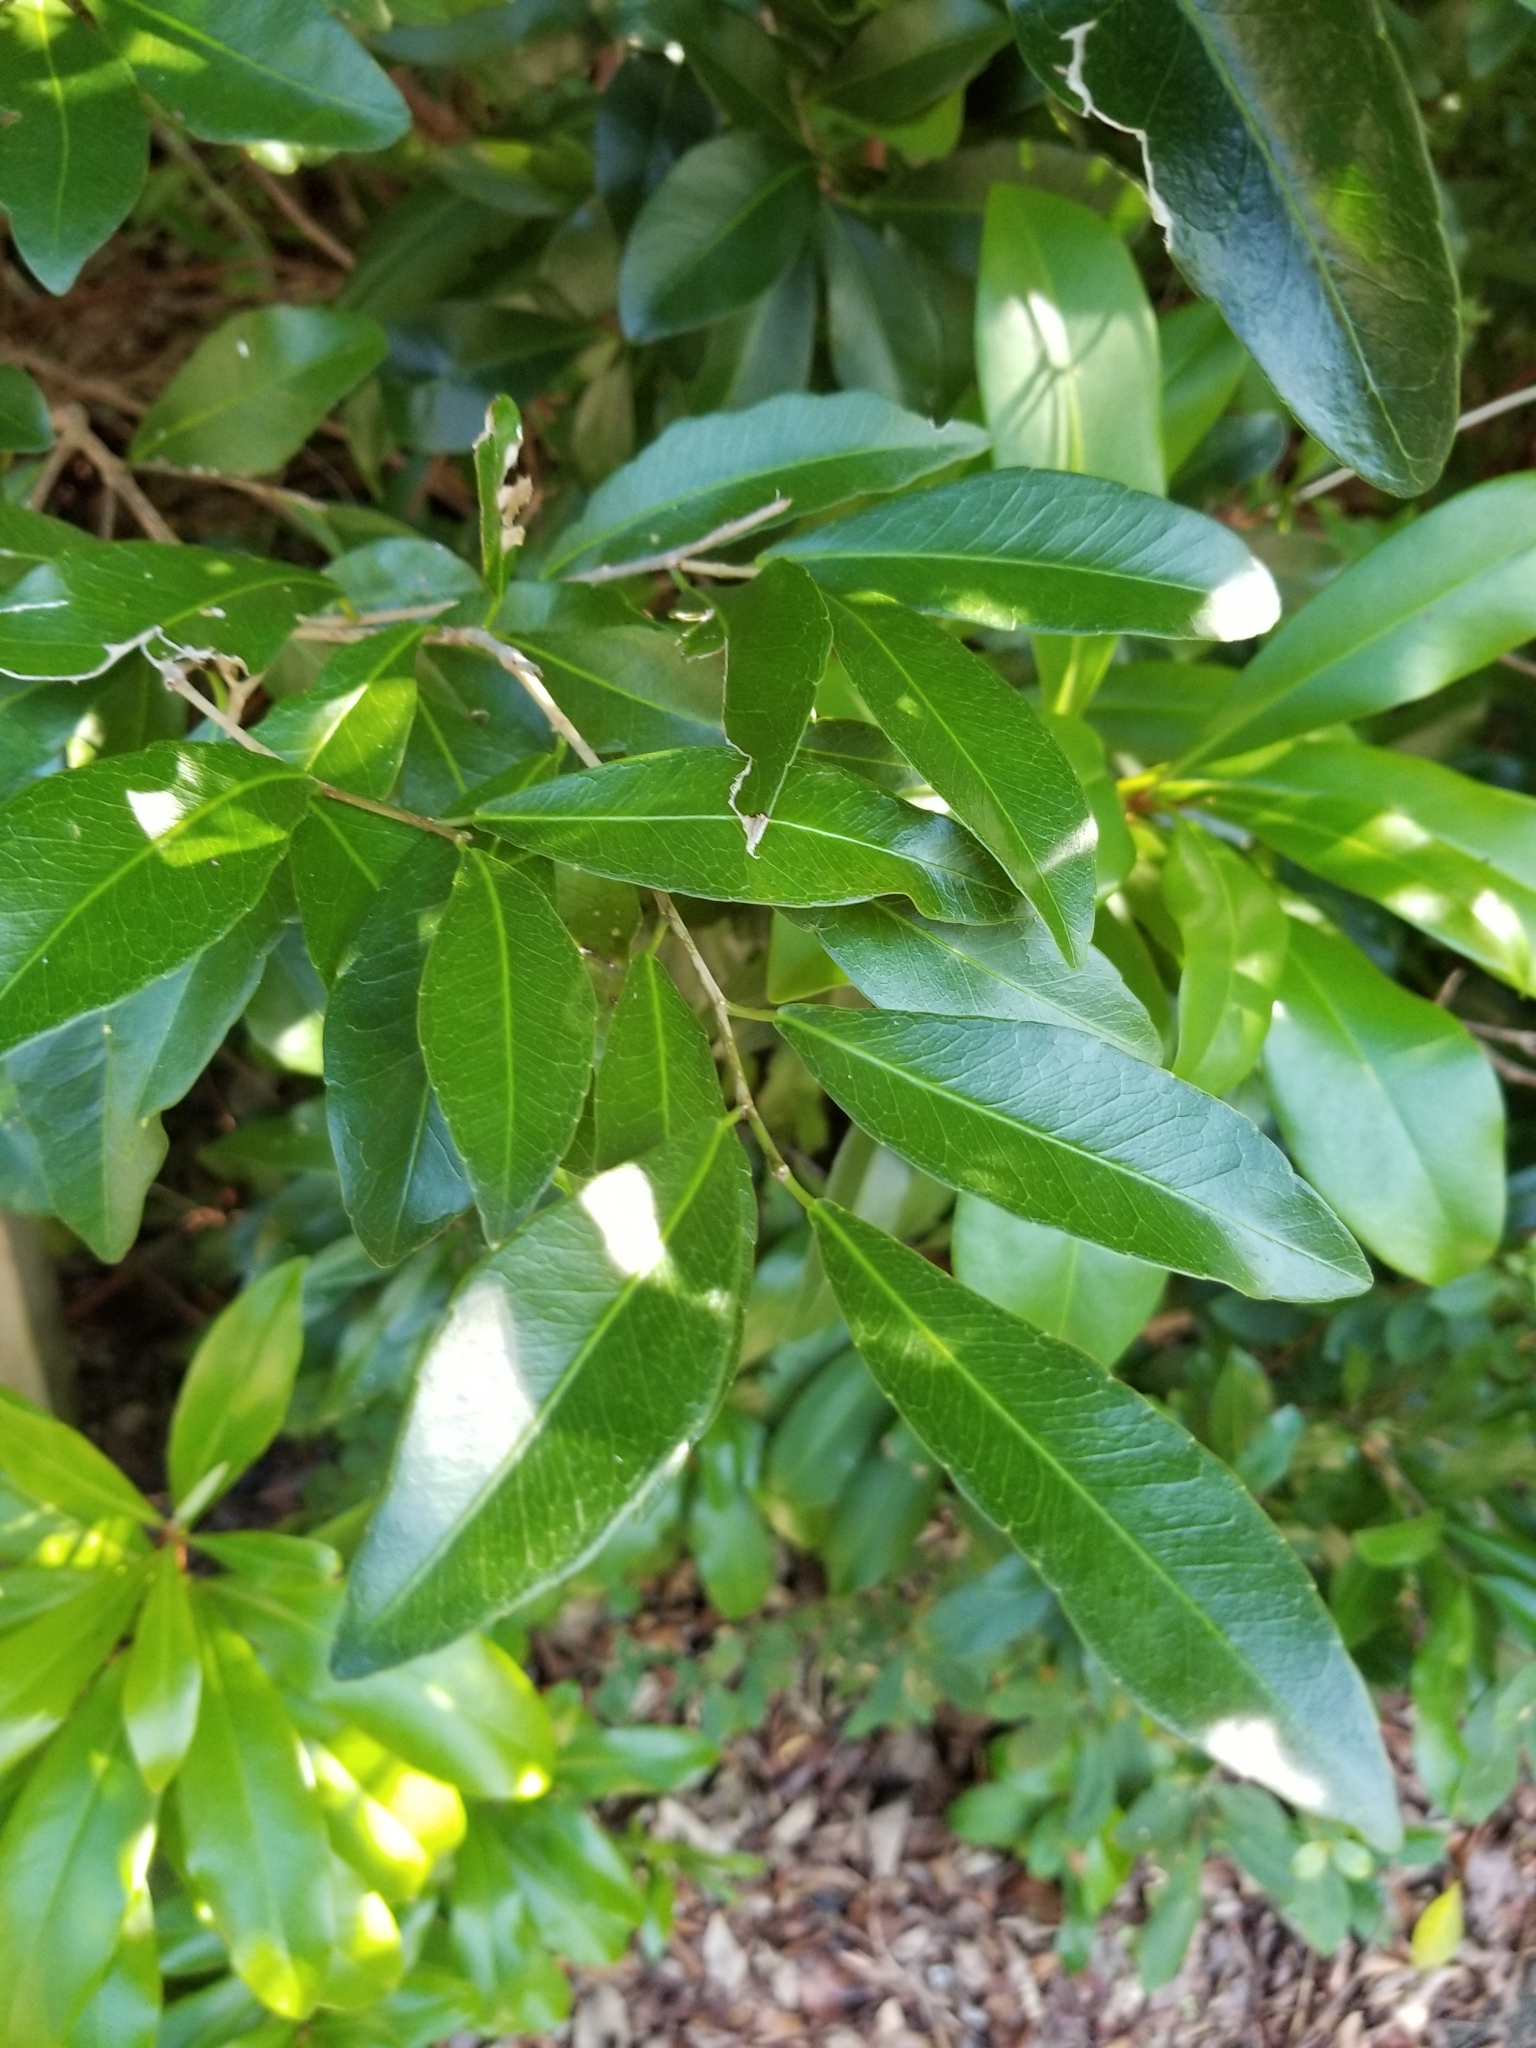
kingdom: Plantae
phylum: Tracheophyta
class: Magnoliopsida
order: Malpighiales
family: Euphorbiaceae
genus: Gymnanthes
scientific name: Gymnanthes lucida
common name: Oysterwood
